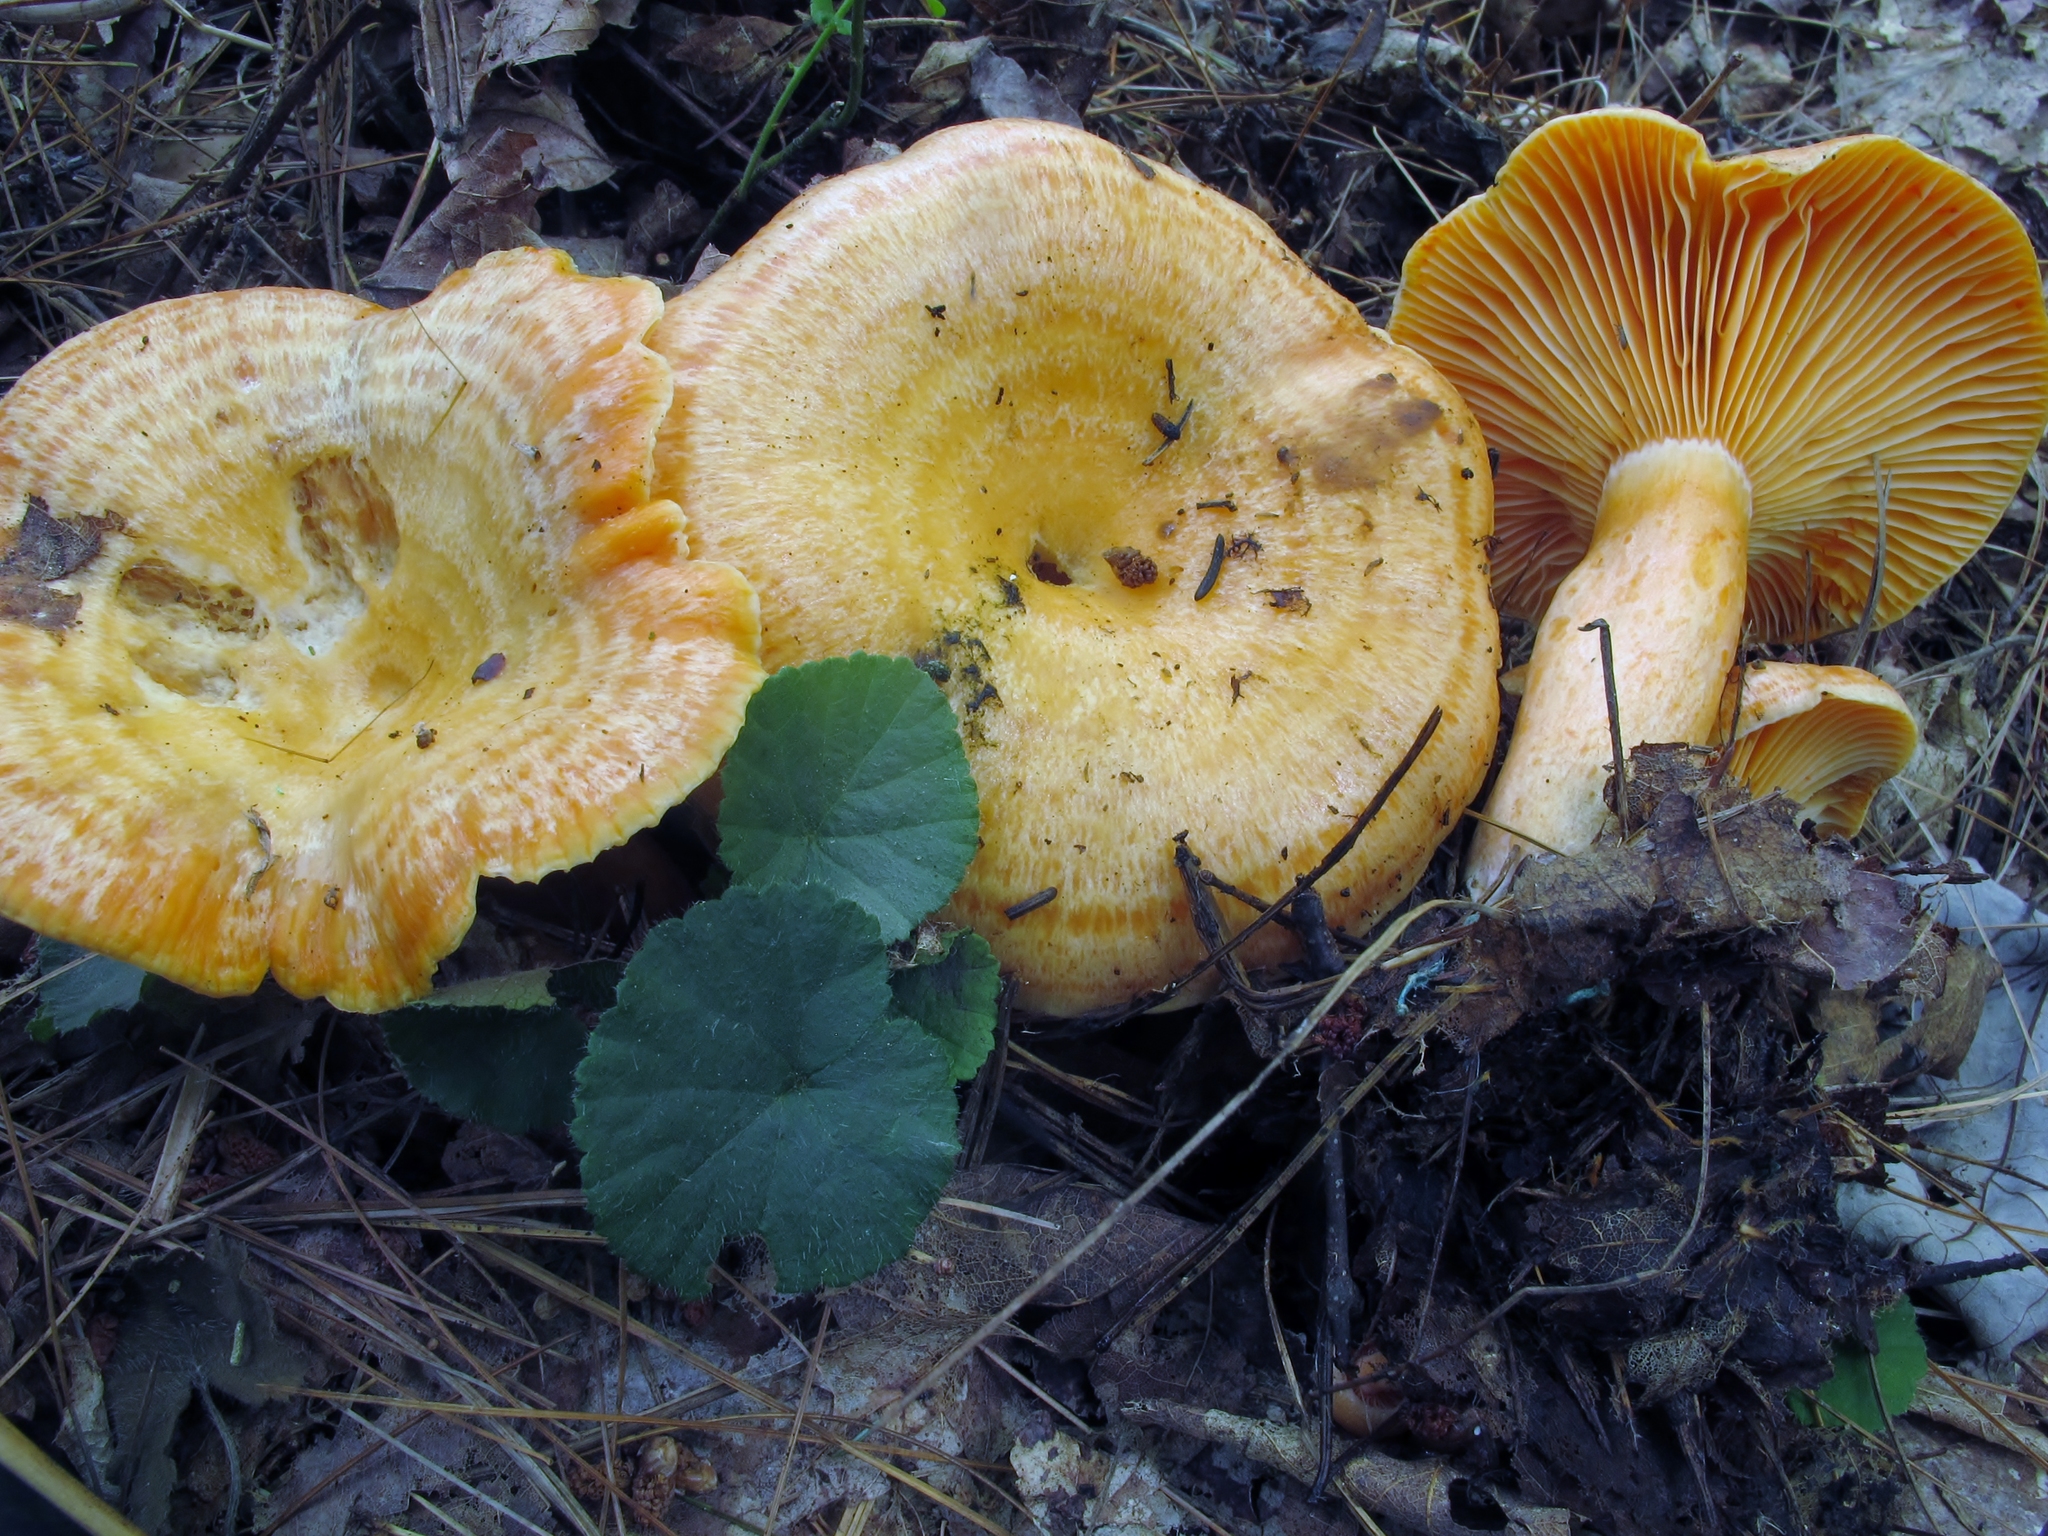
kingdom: Fungi
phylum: Basidiomycota
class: Agaricomycetes
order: Russulales
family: Russulaceae
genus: Lactarius
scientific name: Lactarius salmonicolor
